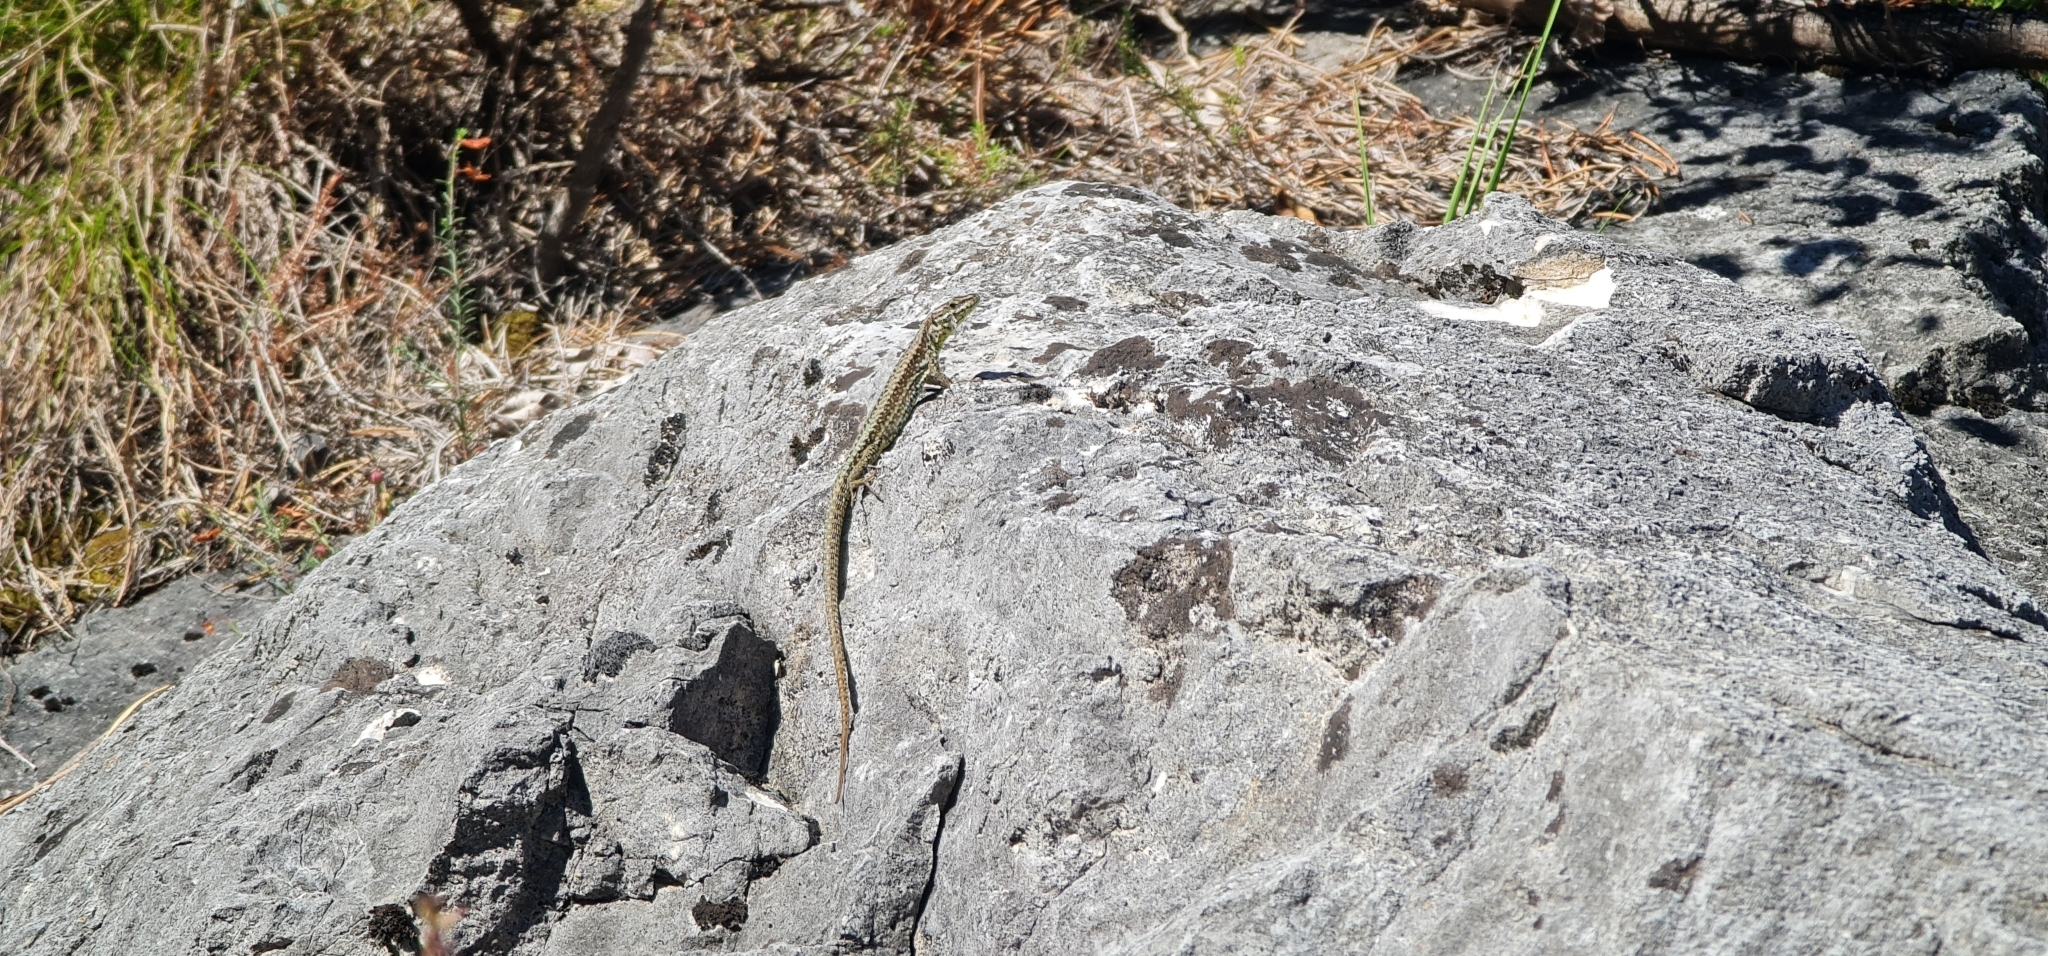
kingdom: Animalia
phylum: Chordata
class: Squamata
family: Lacertidae
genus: Podarcis
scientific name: Podarcis muralis
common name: Common wall lizard
